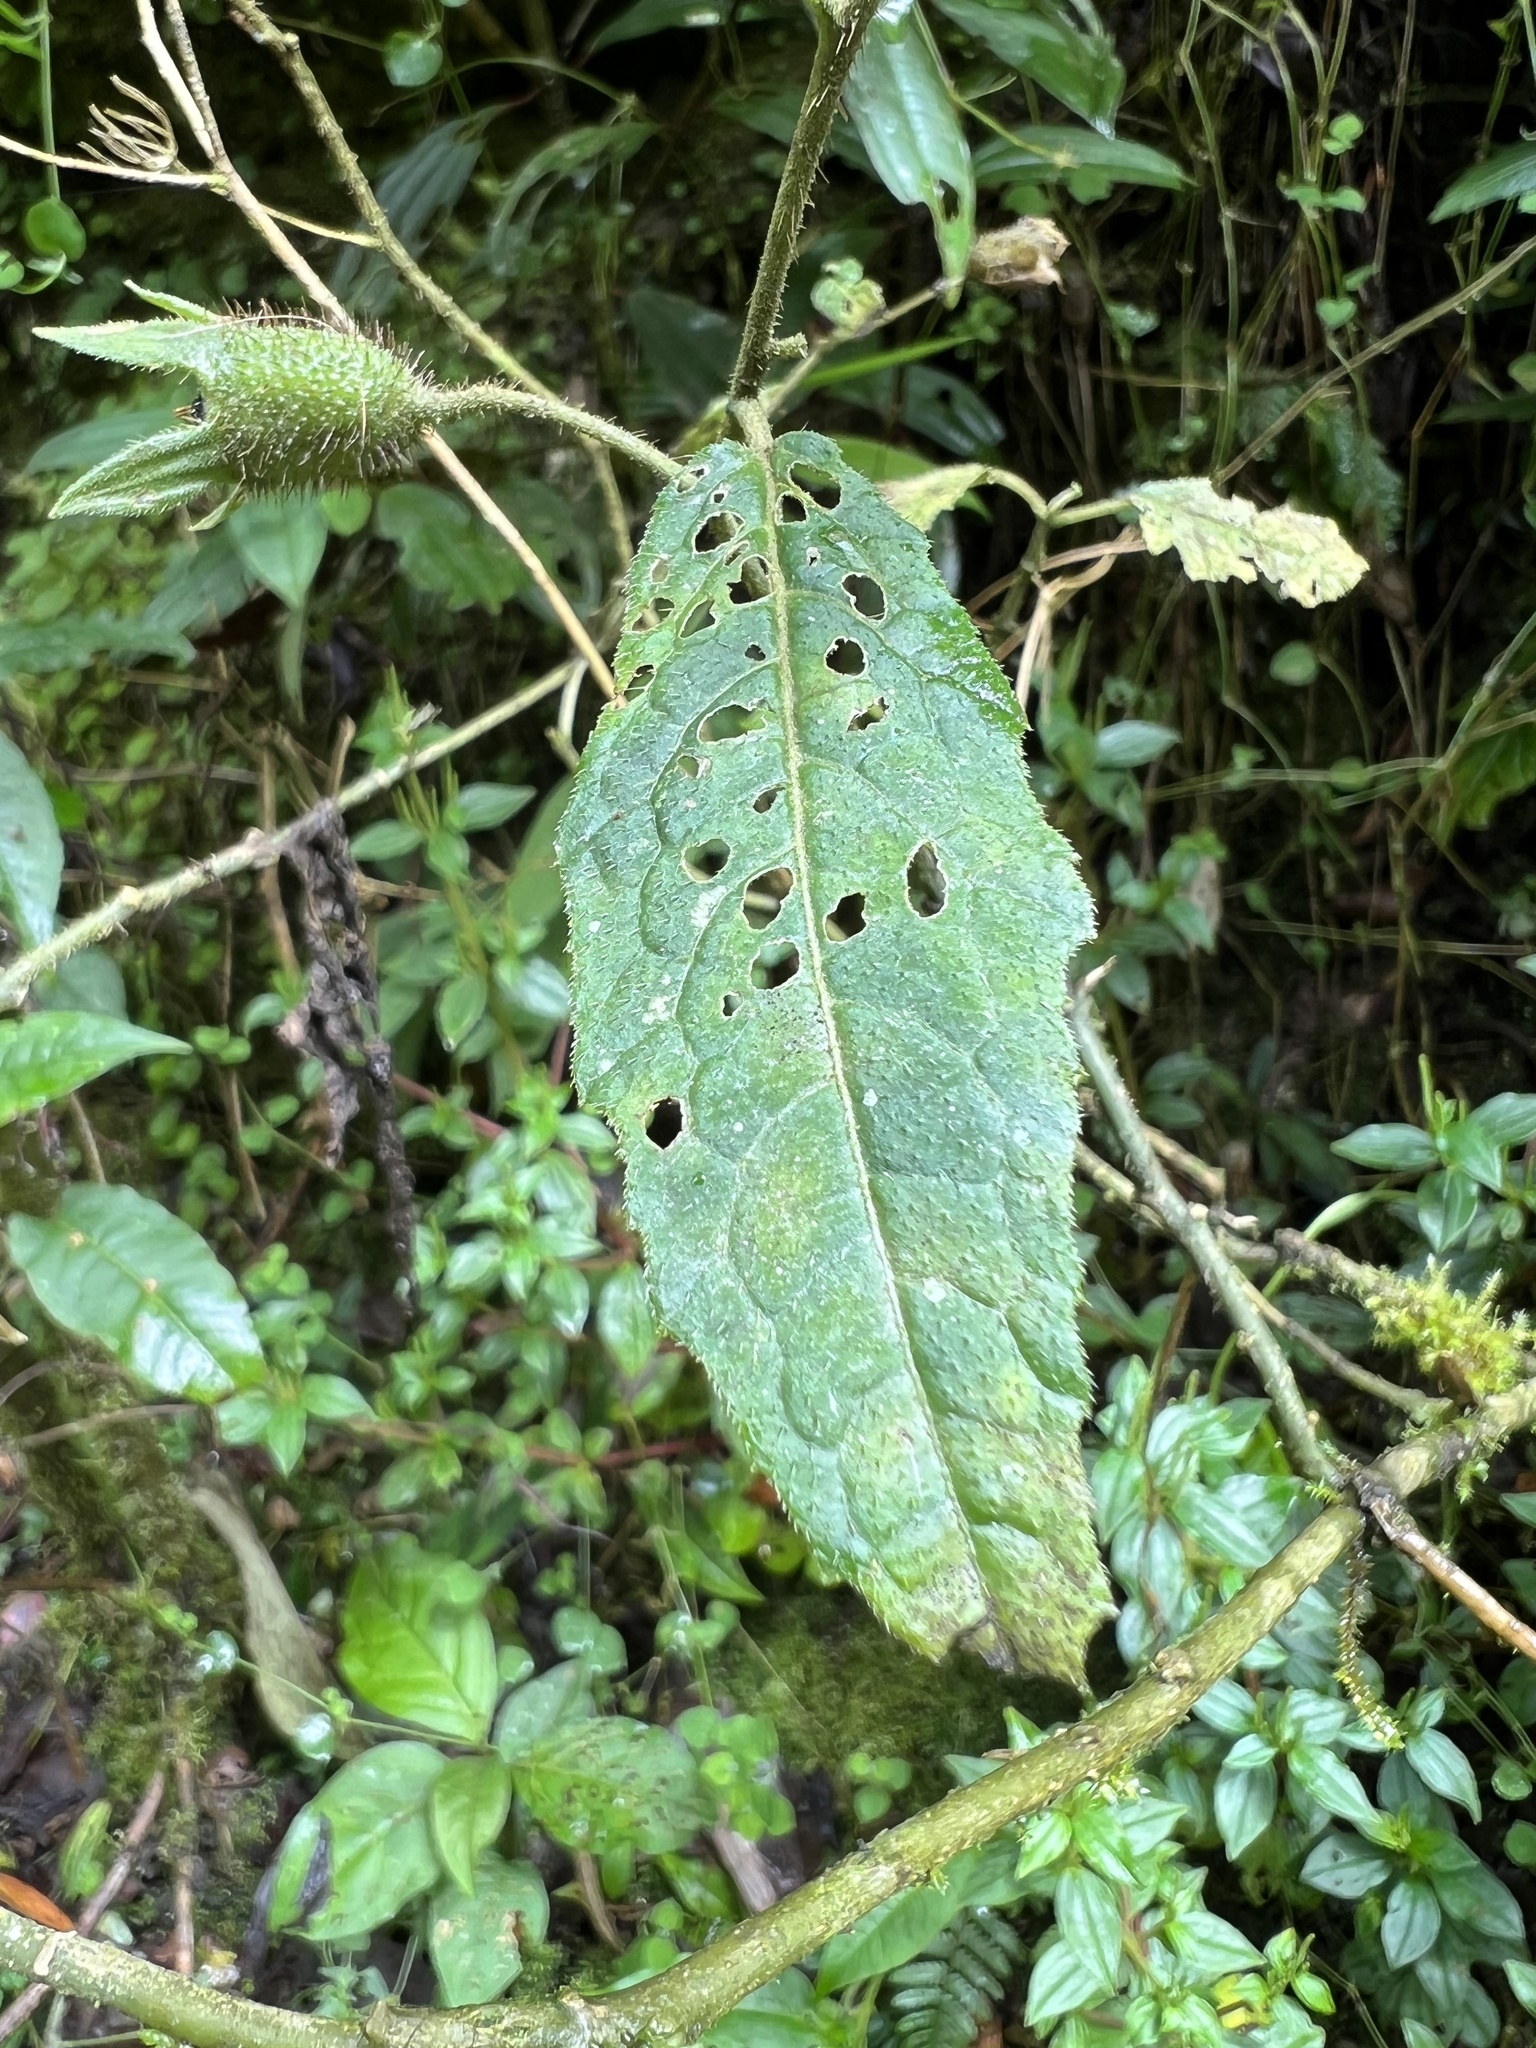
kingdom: Plantae
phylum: Tracheophyta
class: Magnoliopsida
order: Cornales
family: Loasaceae
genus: Nasa
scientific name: Nasa campaniflora
